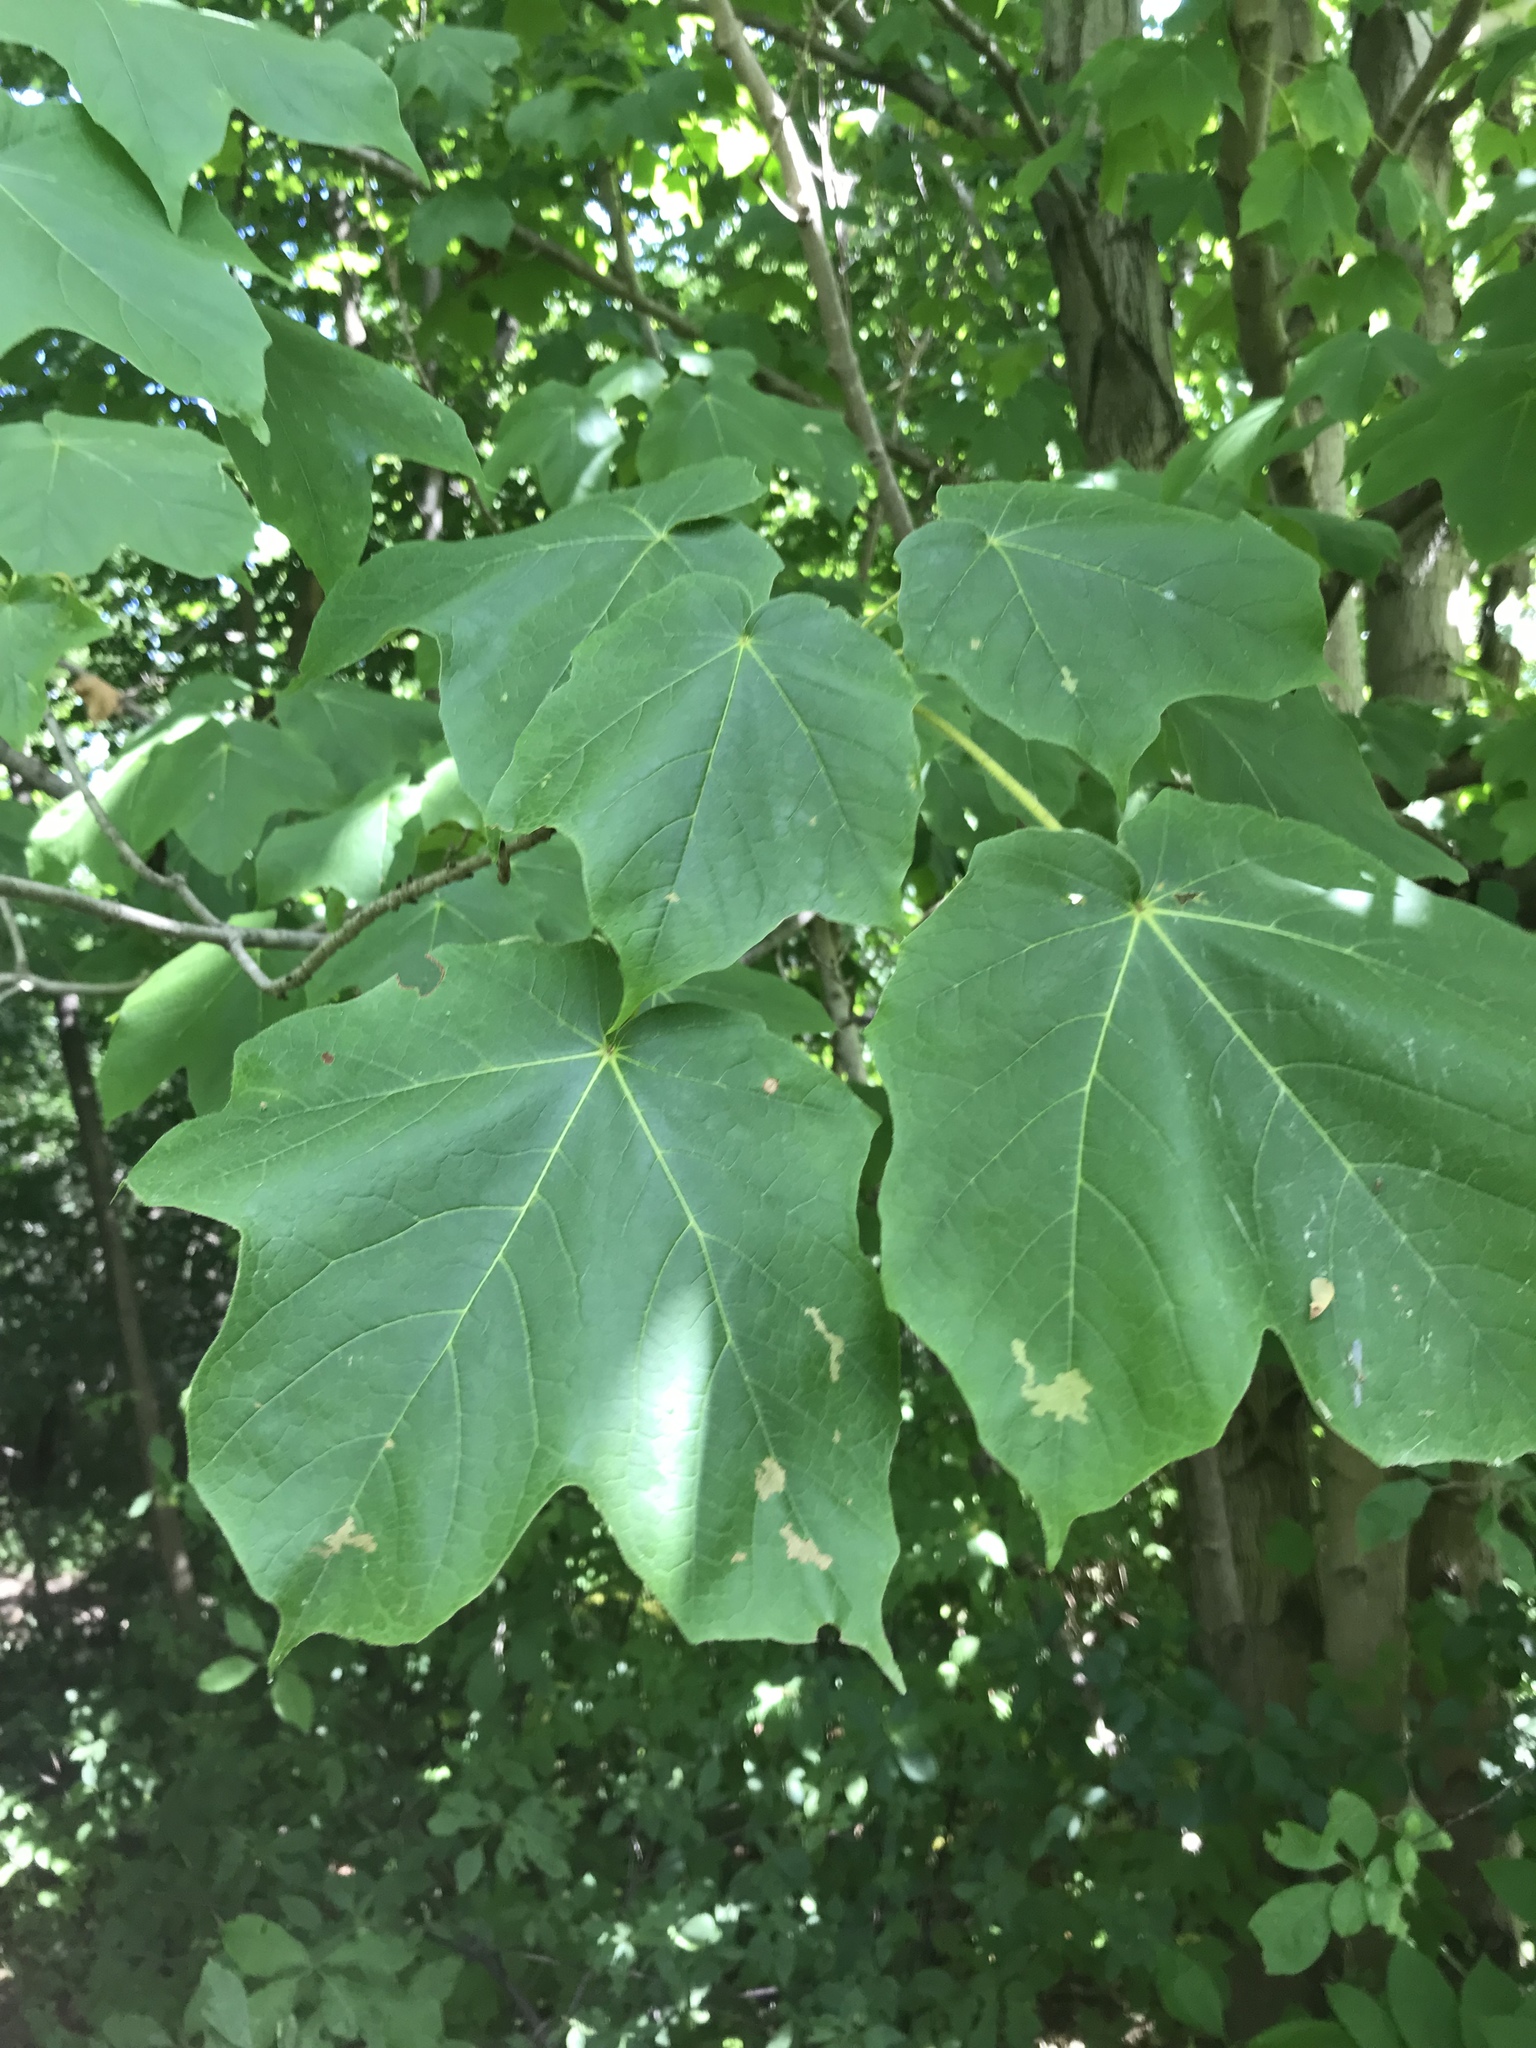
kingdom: Plantae
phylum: Tracheophyta
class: Magnoliopsida
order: Sapindales
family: Sapindaceae
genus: Acer
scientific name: Acer nigrum
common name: Black maple
